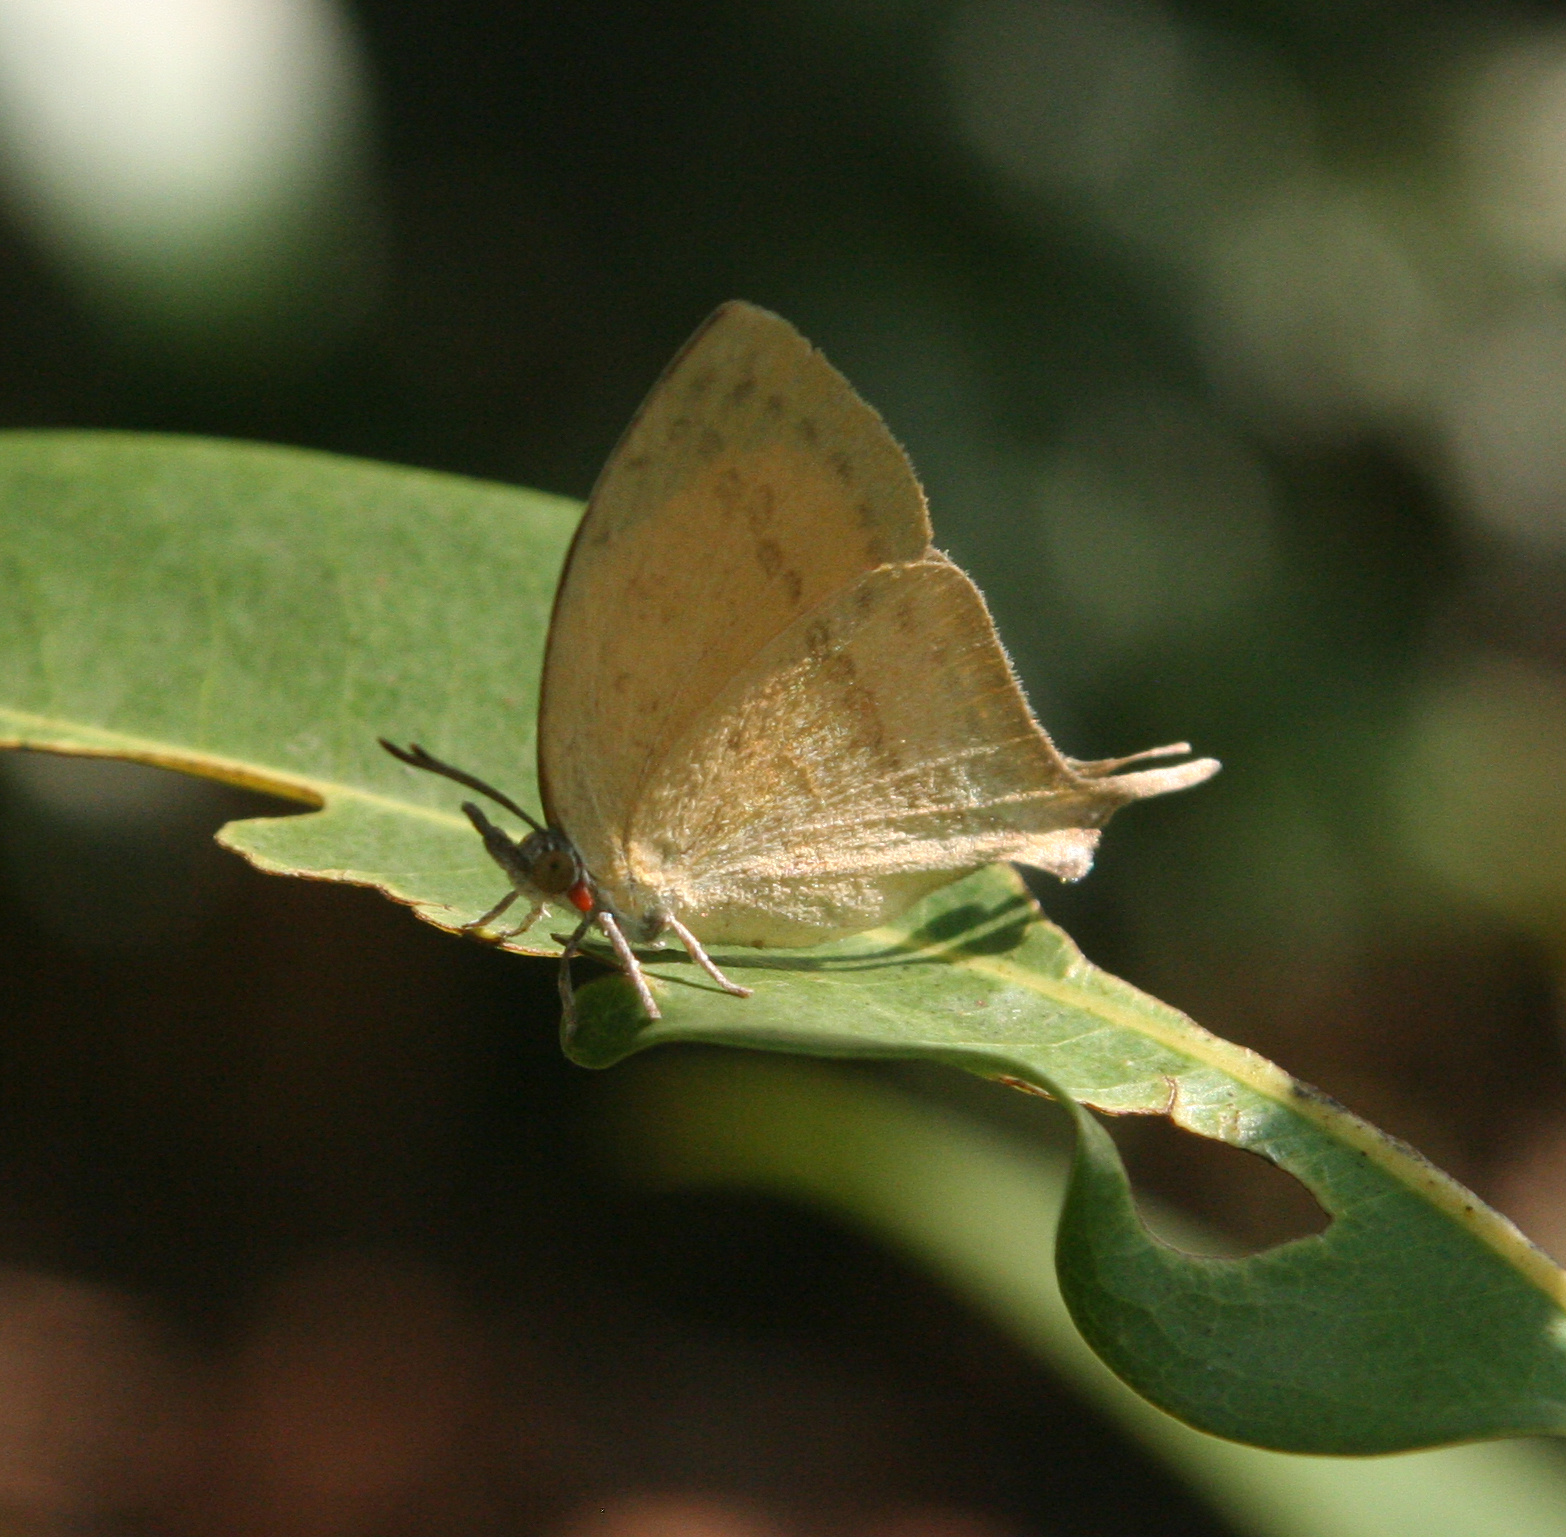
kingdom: Animalia
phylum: Arthropoda
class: Insecta
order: Lepidoptera
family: Lycaenidae
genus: Loxura
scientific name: Loxura atymnus
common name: Common yamfly
